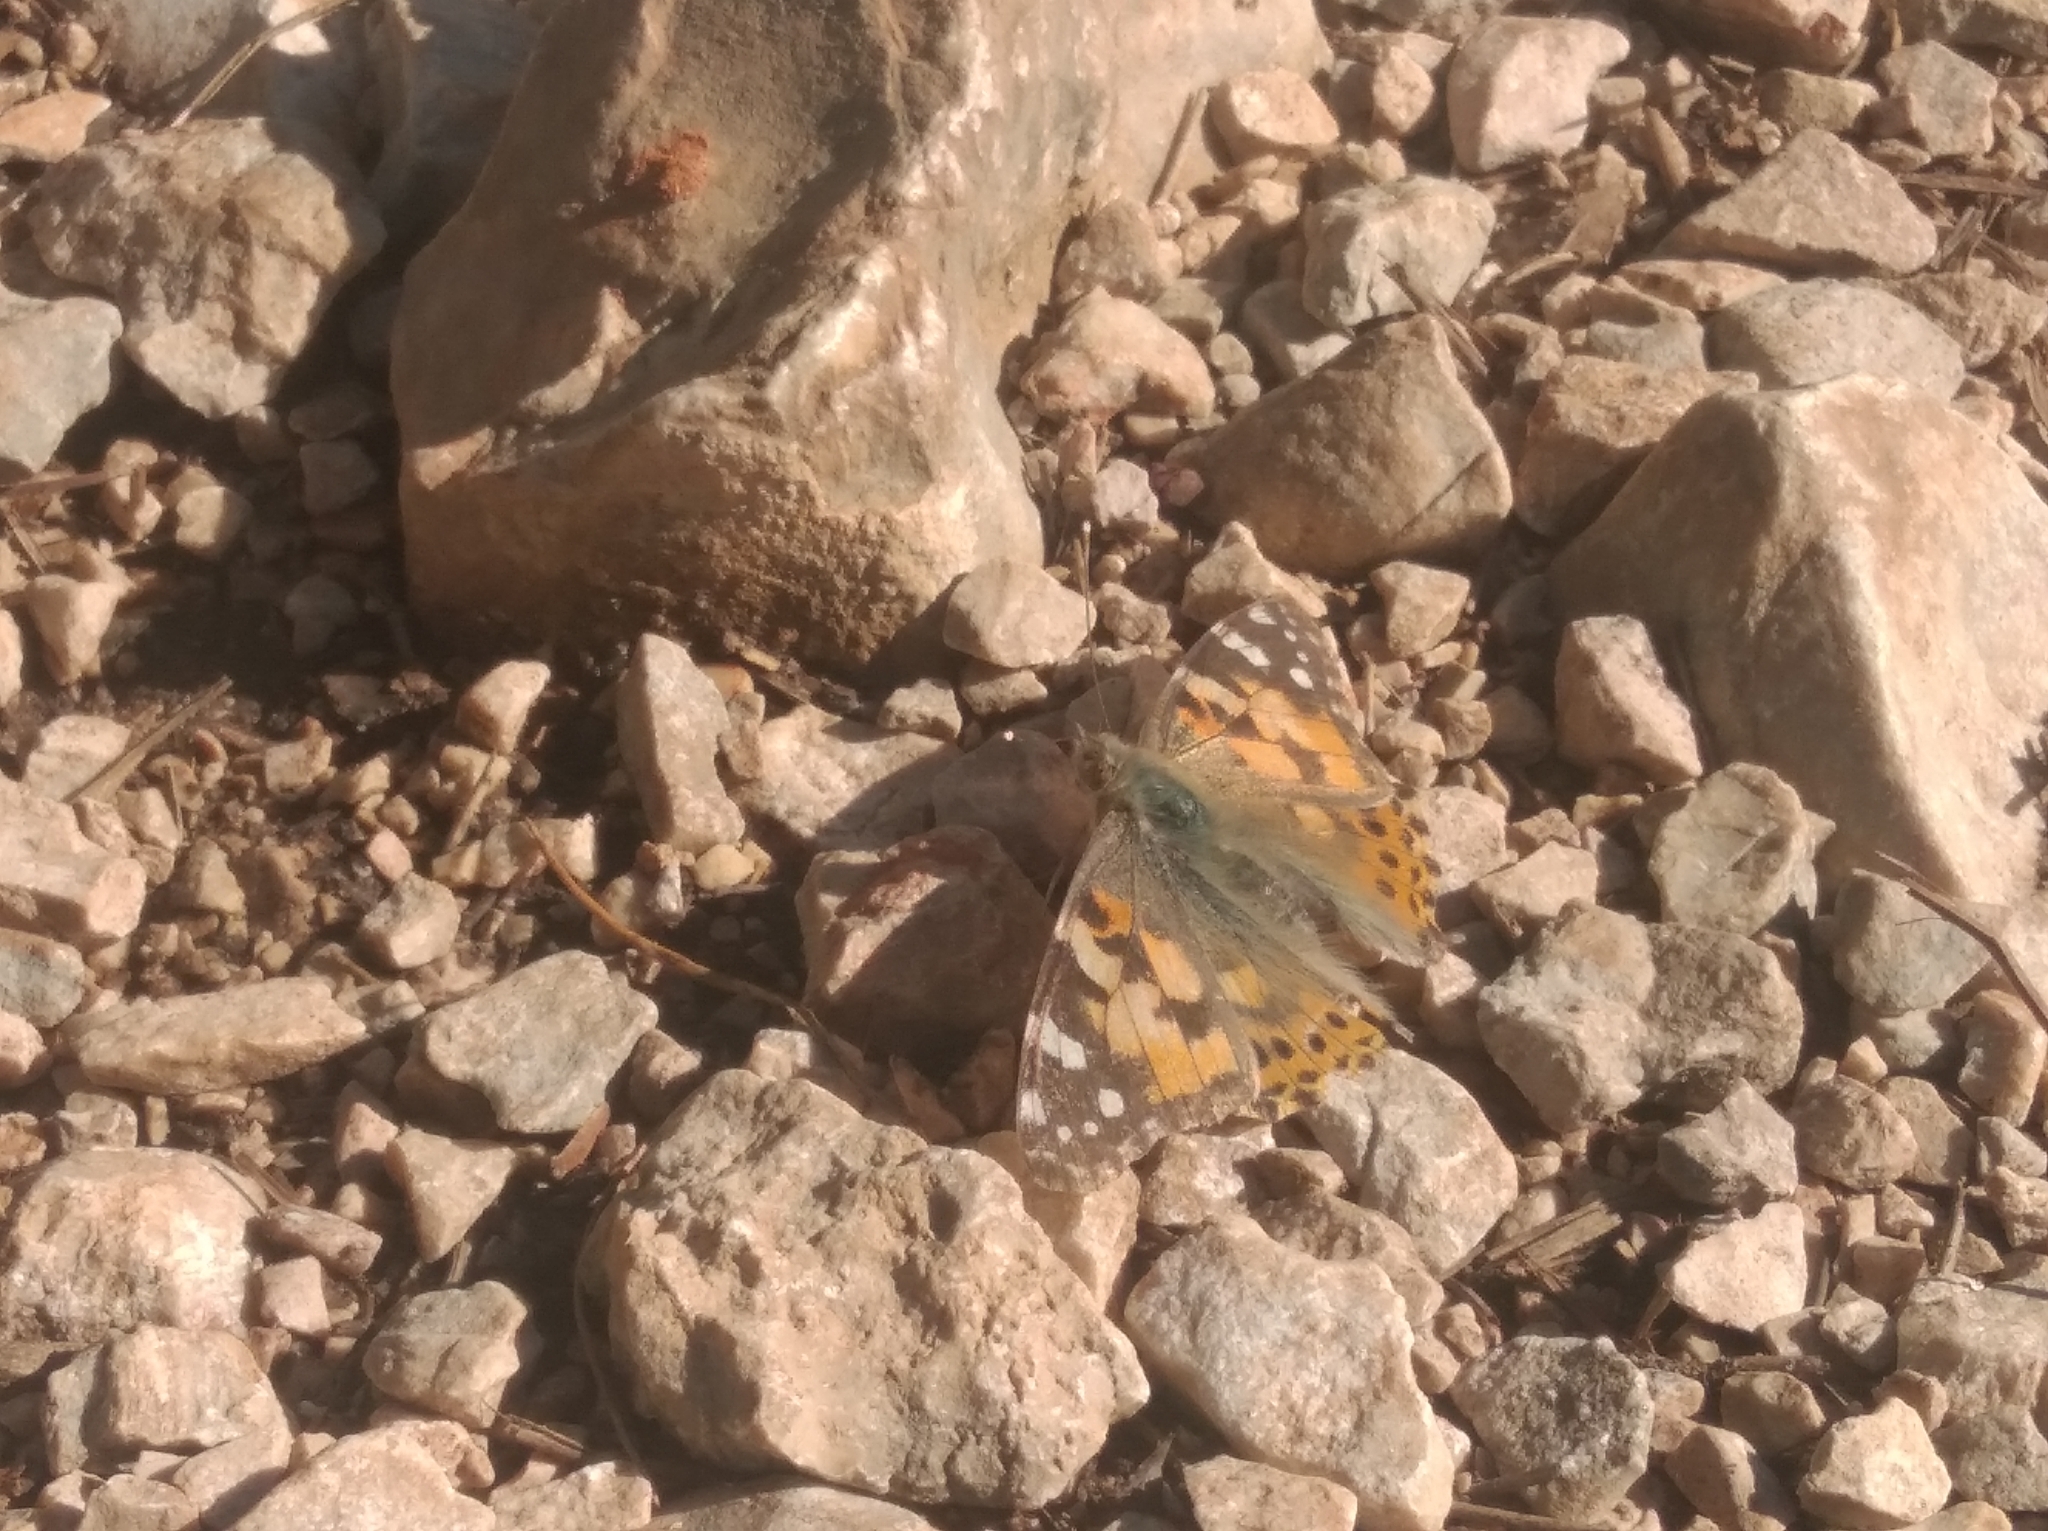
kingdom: Animalia
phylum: Arthropoda
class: Insecta
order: Lepidoptera
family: Nymphalidae
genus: Vanessa
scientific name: Vanessa cardui
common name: Painted lady
